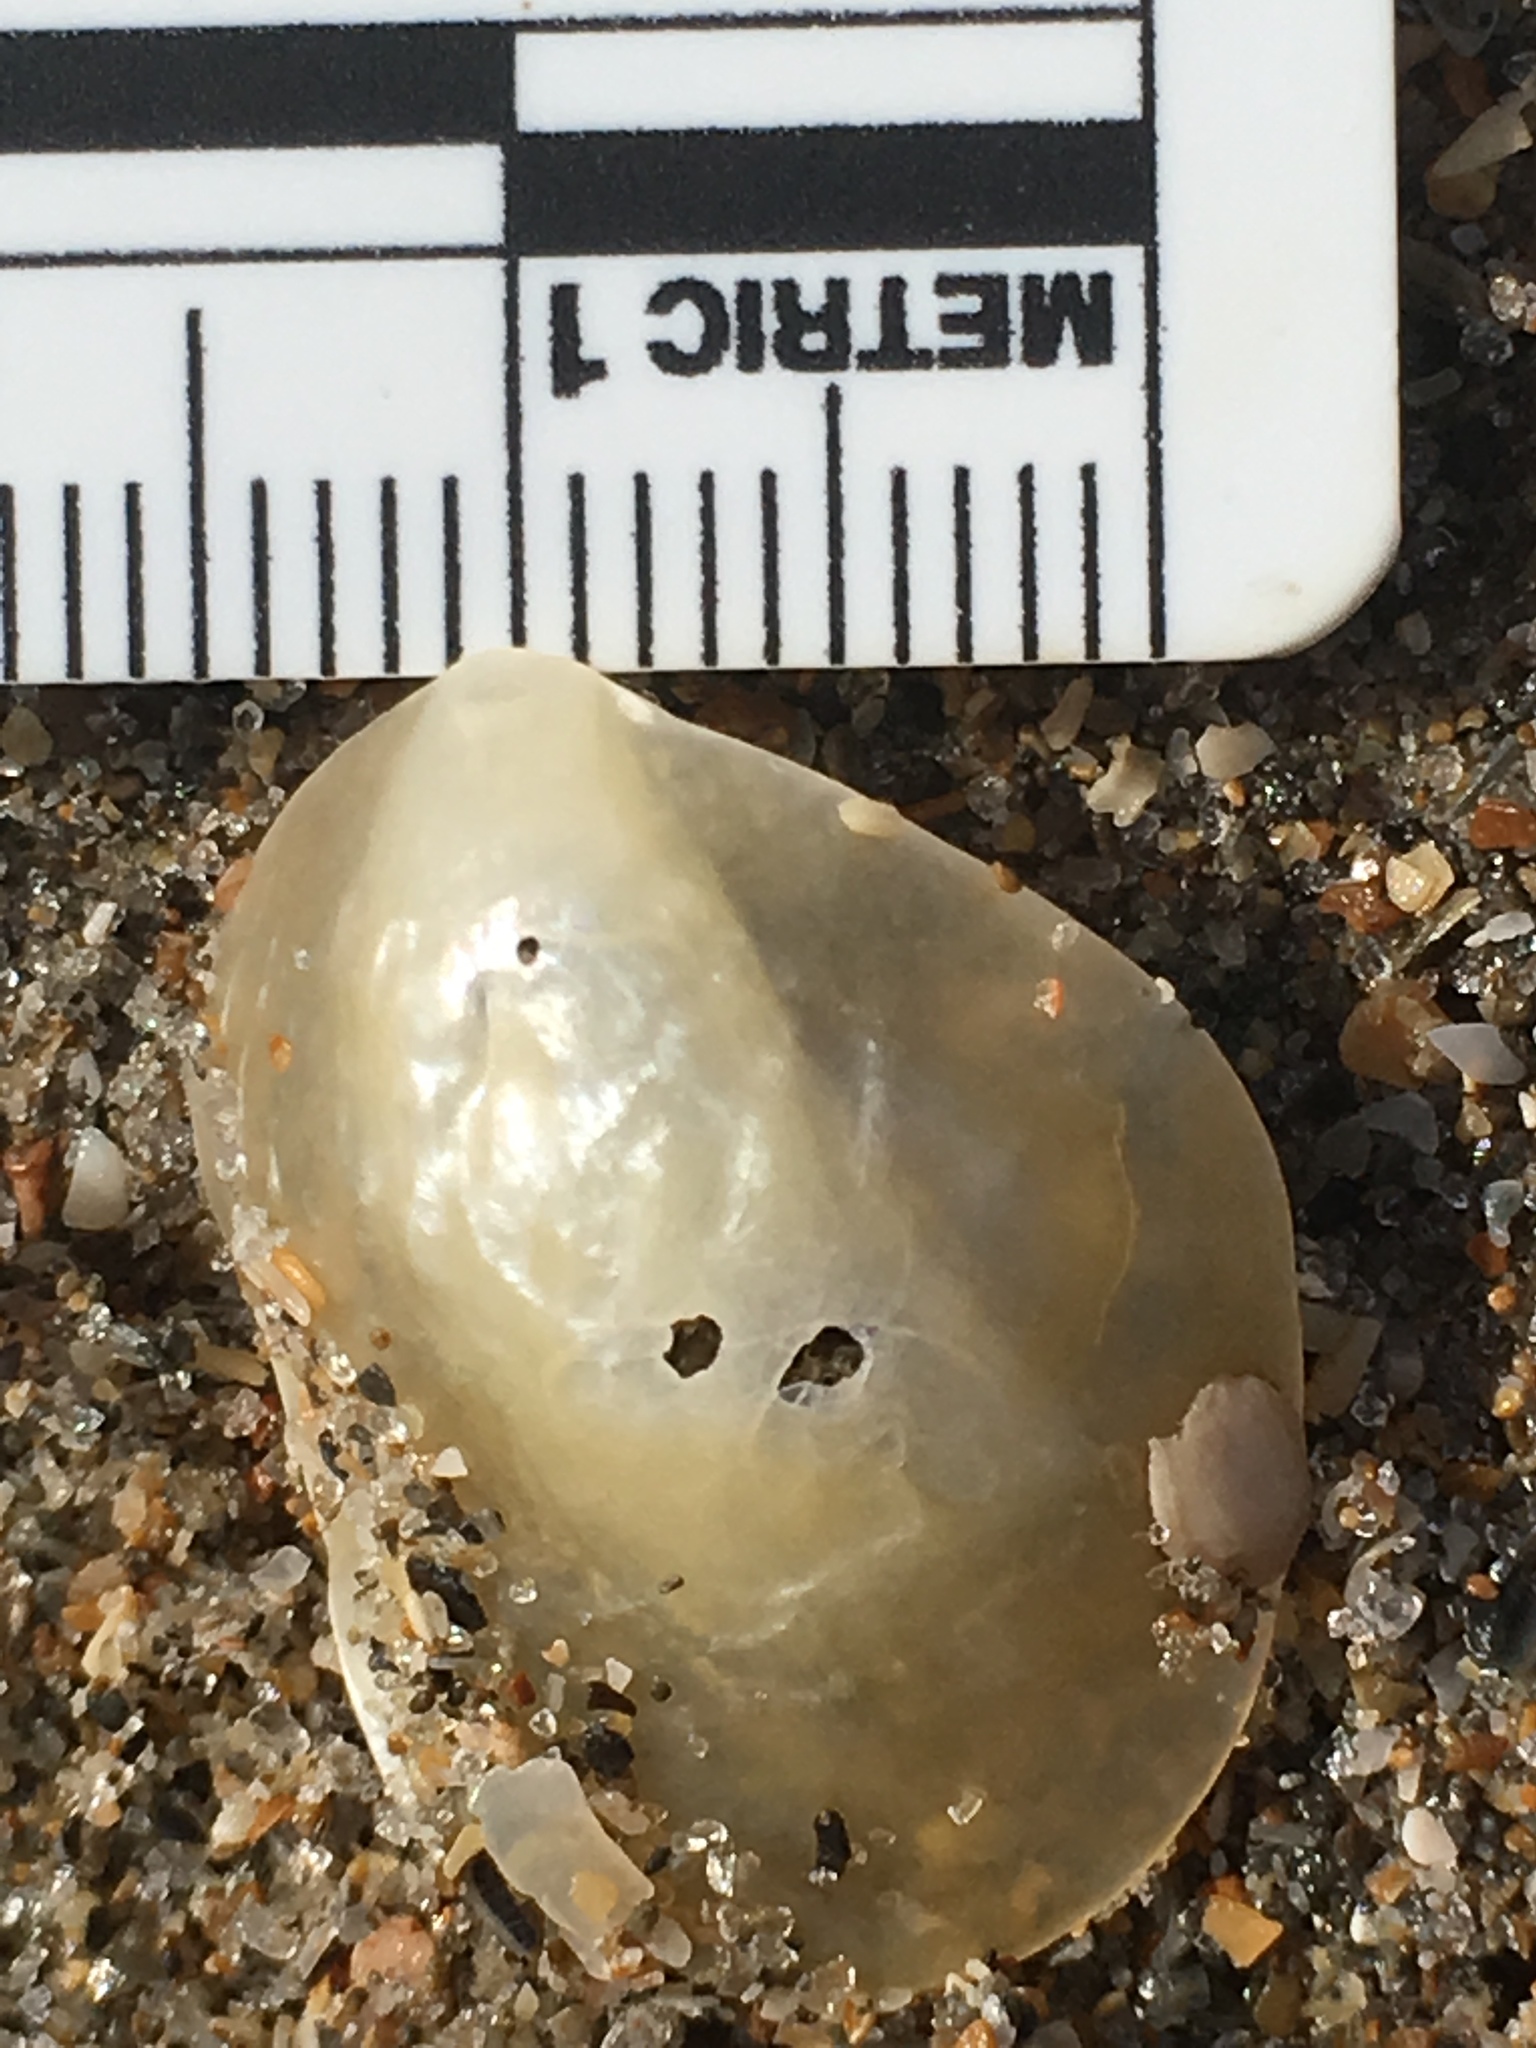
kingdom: Animalia
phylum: Mollusca
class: Bivalvia
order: Pectinida
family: Anomiidae
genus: Anomia
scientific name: Anomia simplex
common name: Common jingle shell
